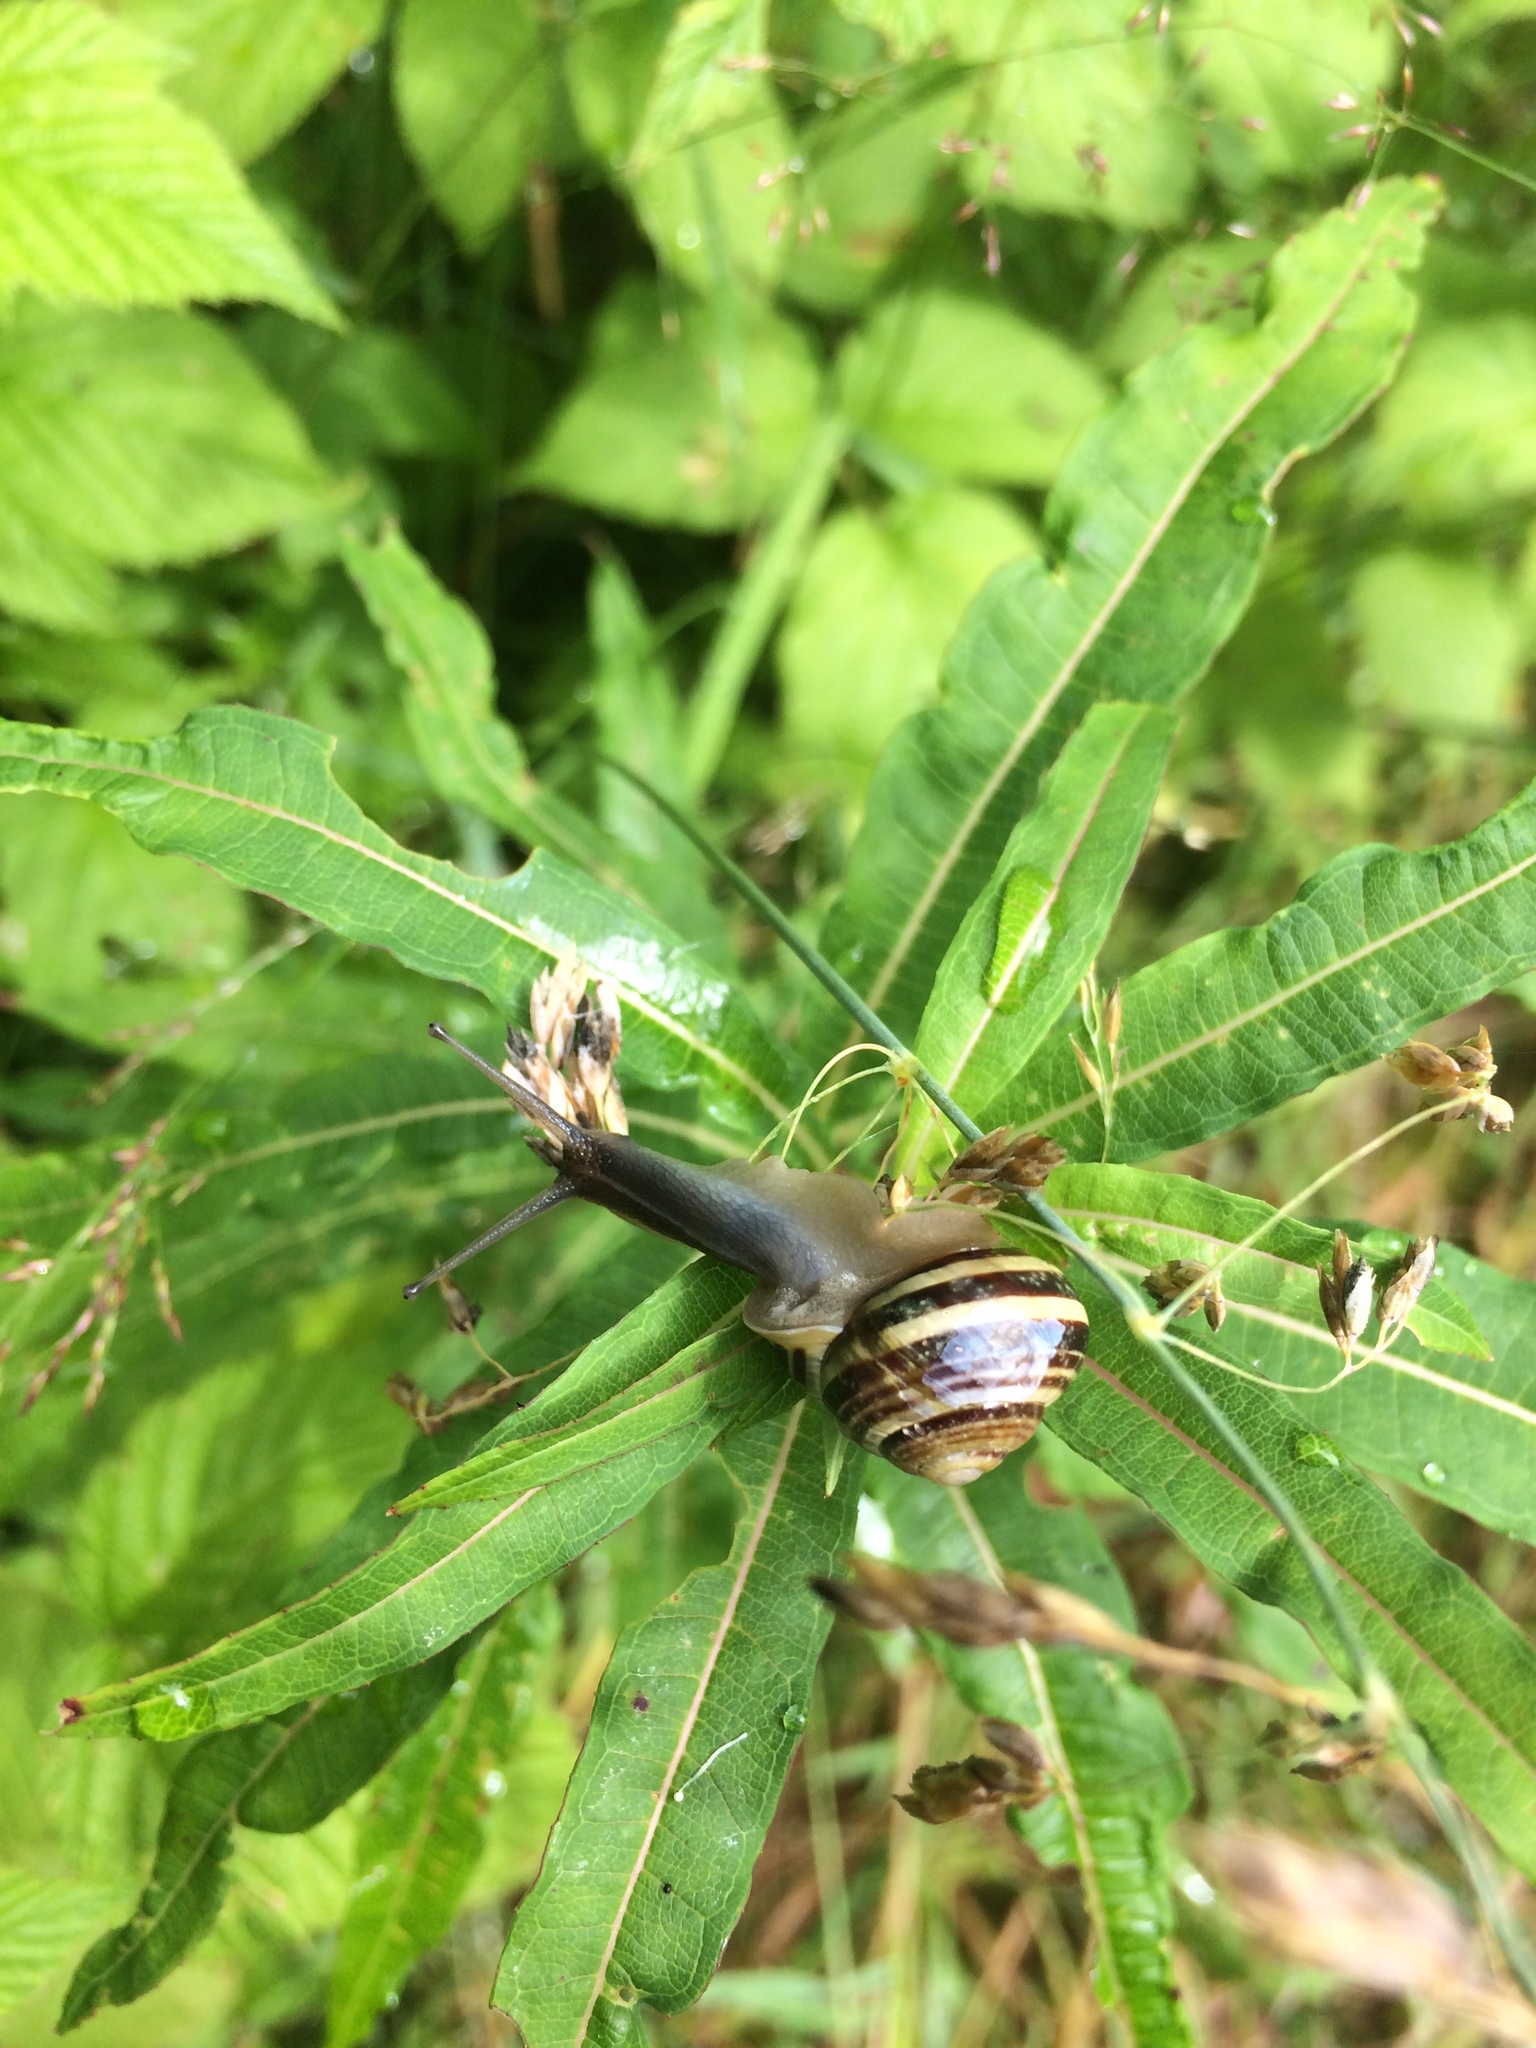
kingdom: Animalia
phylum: Mollusca
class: Gastropoda
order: Stylommatophora
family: Helicidae
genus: Cepaea
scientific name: Cepaea hortensis
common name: White-lip gardensnail
